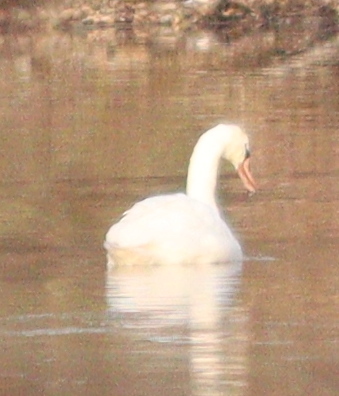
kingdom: Animalia
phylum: Chordata
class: Aves
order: Anseriformes
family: Anatidae
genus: Cygnus
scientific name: Cygnus olor
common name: Mute swan
